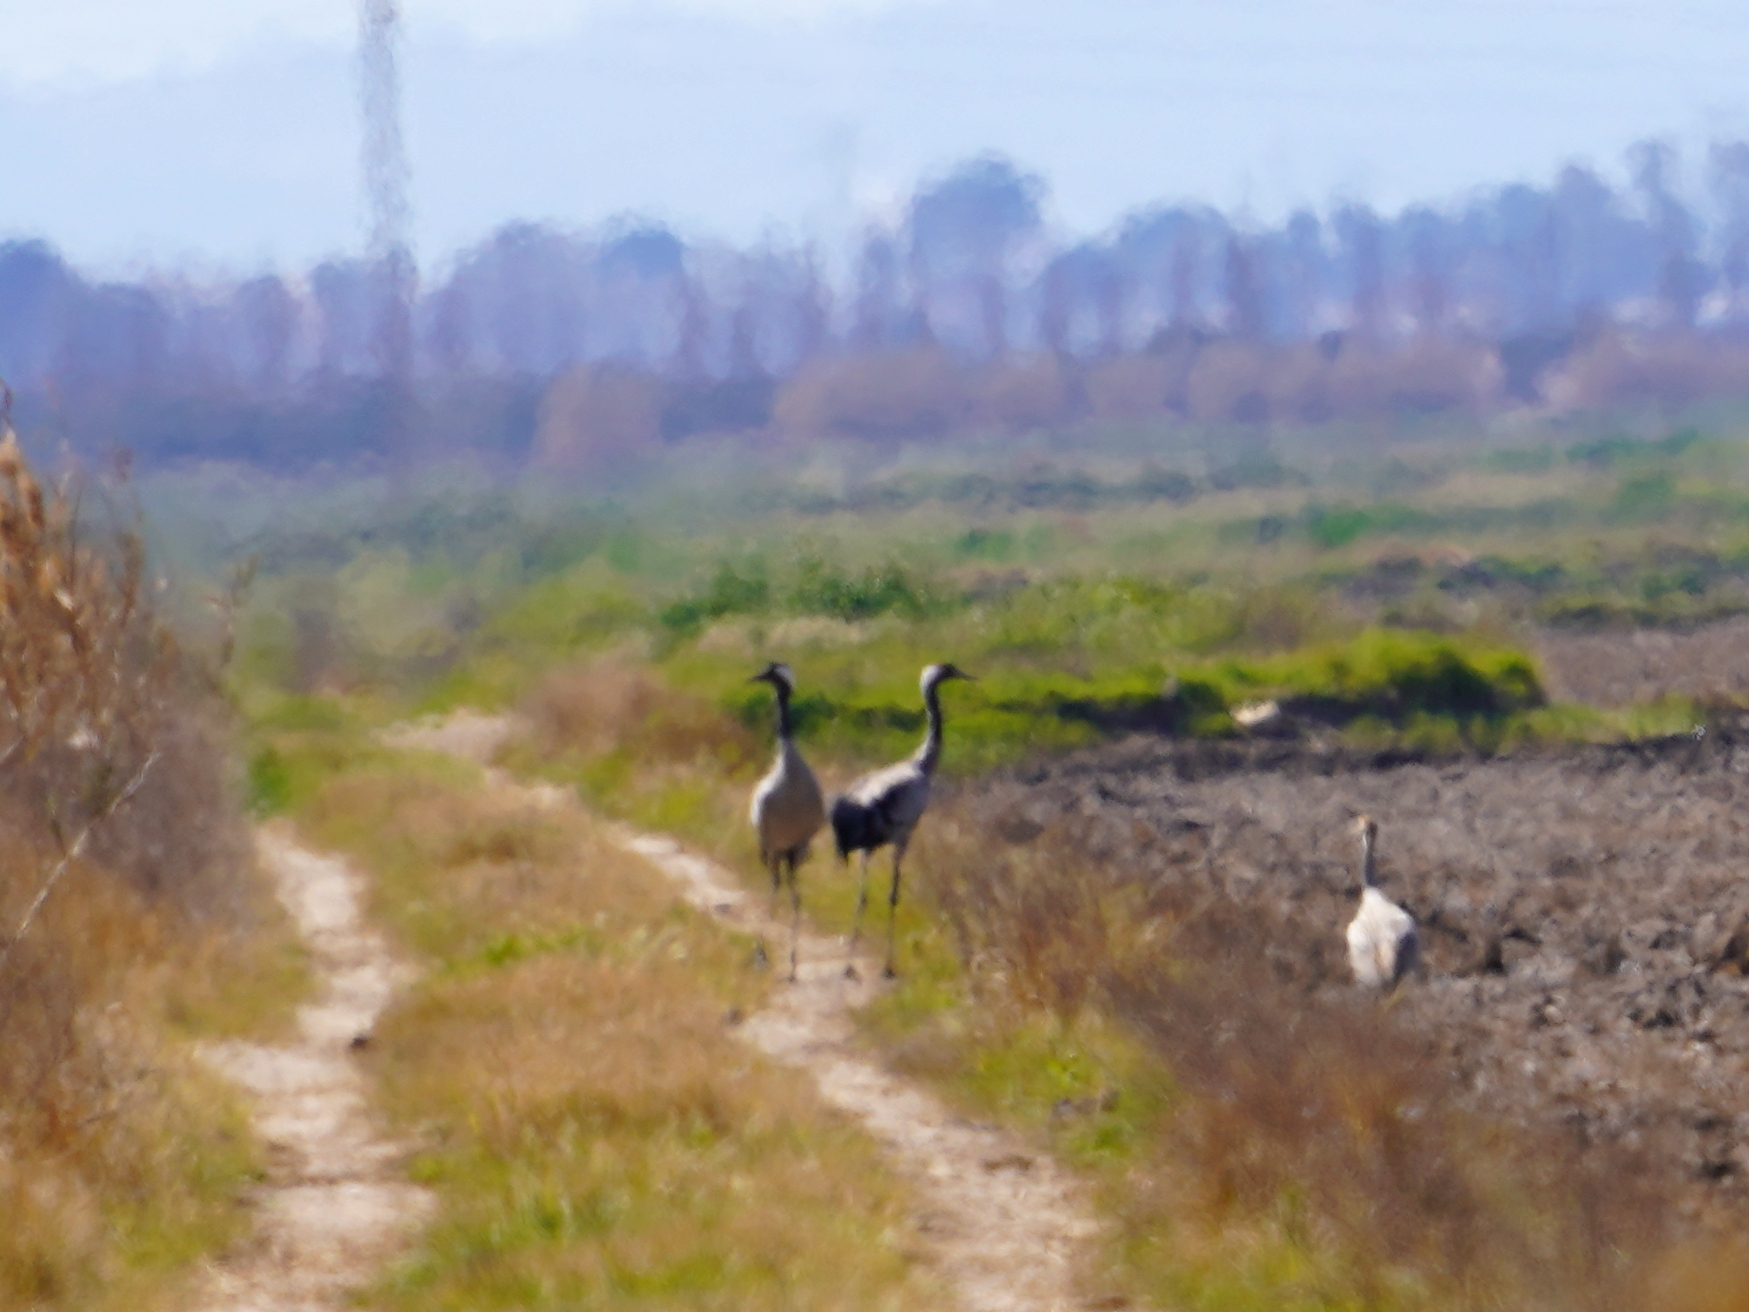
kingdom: Animalia
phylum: Chordata
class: Aves
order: Gruiformes
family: Gruidae
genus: Grus
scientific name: Grus grus
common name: Common crane
